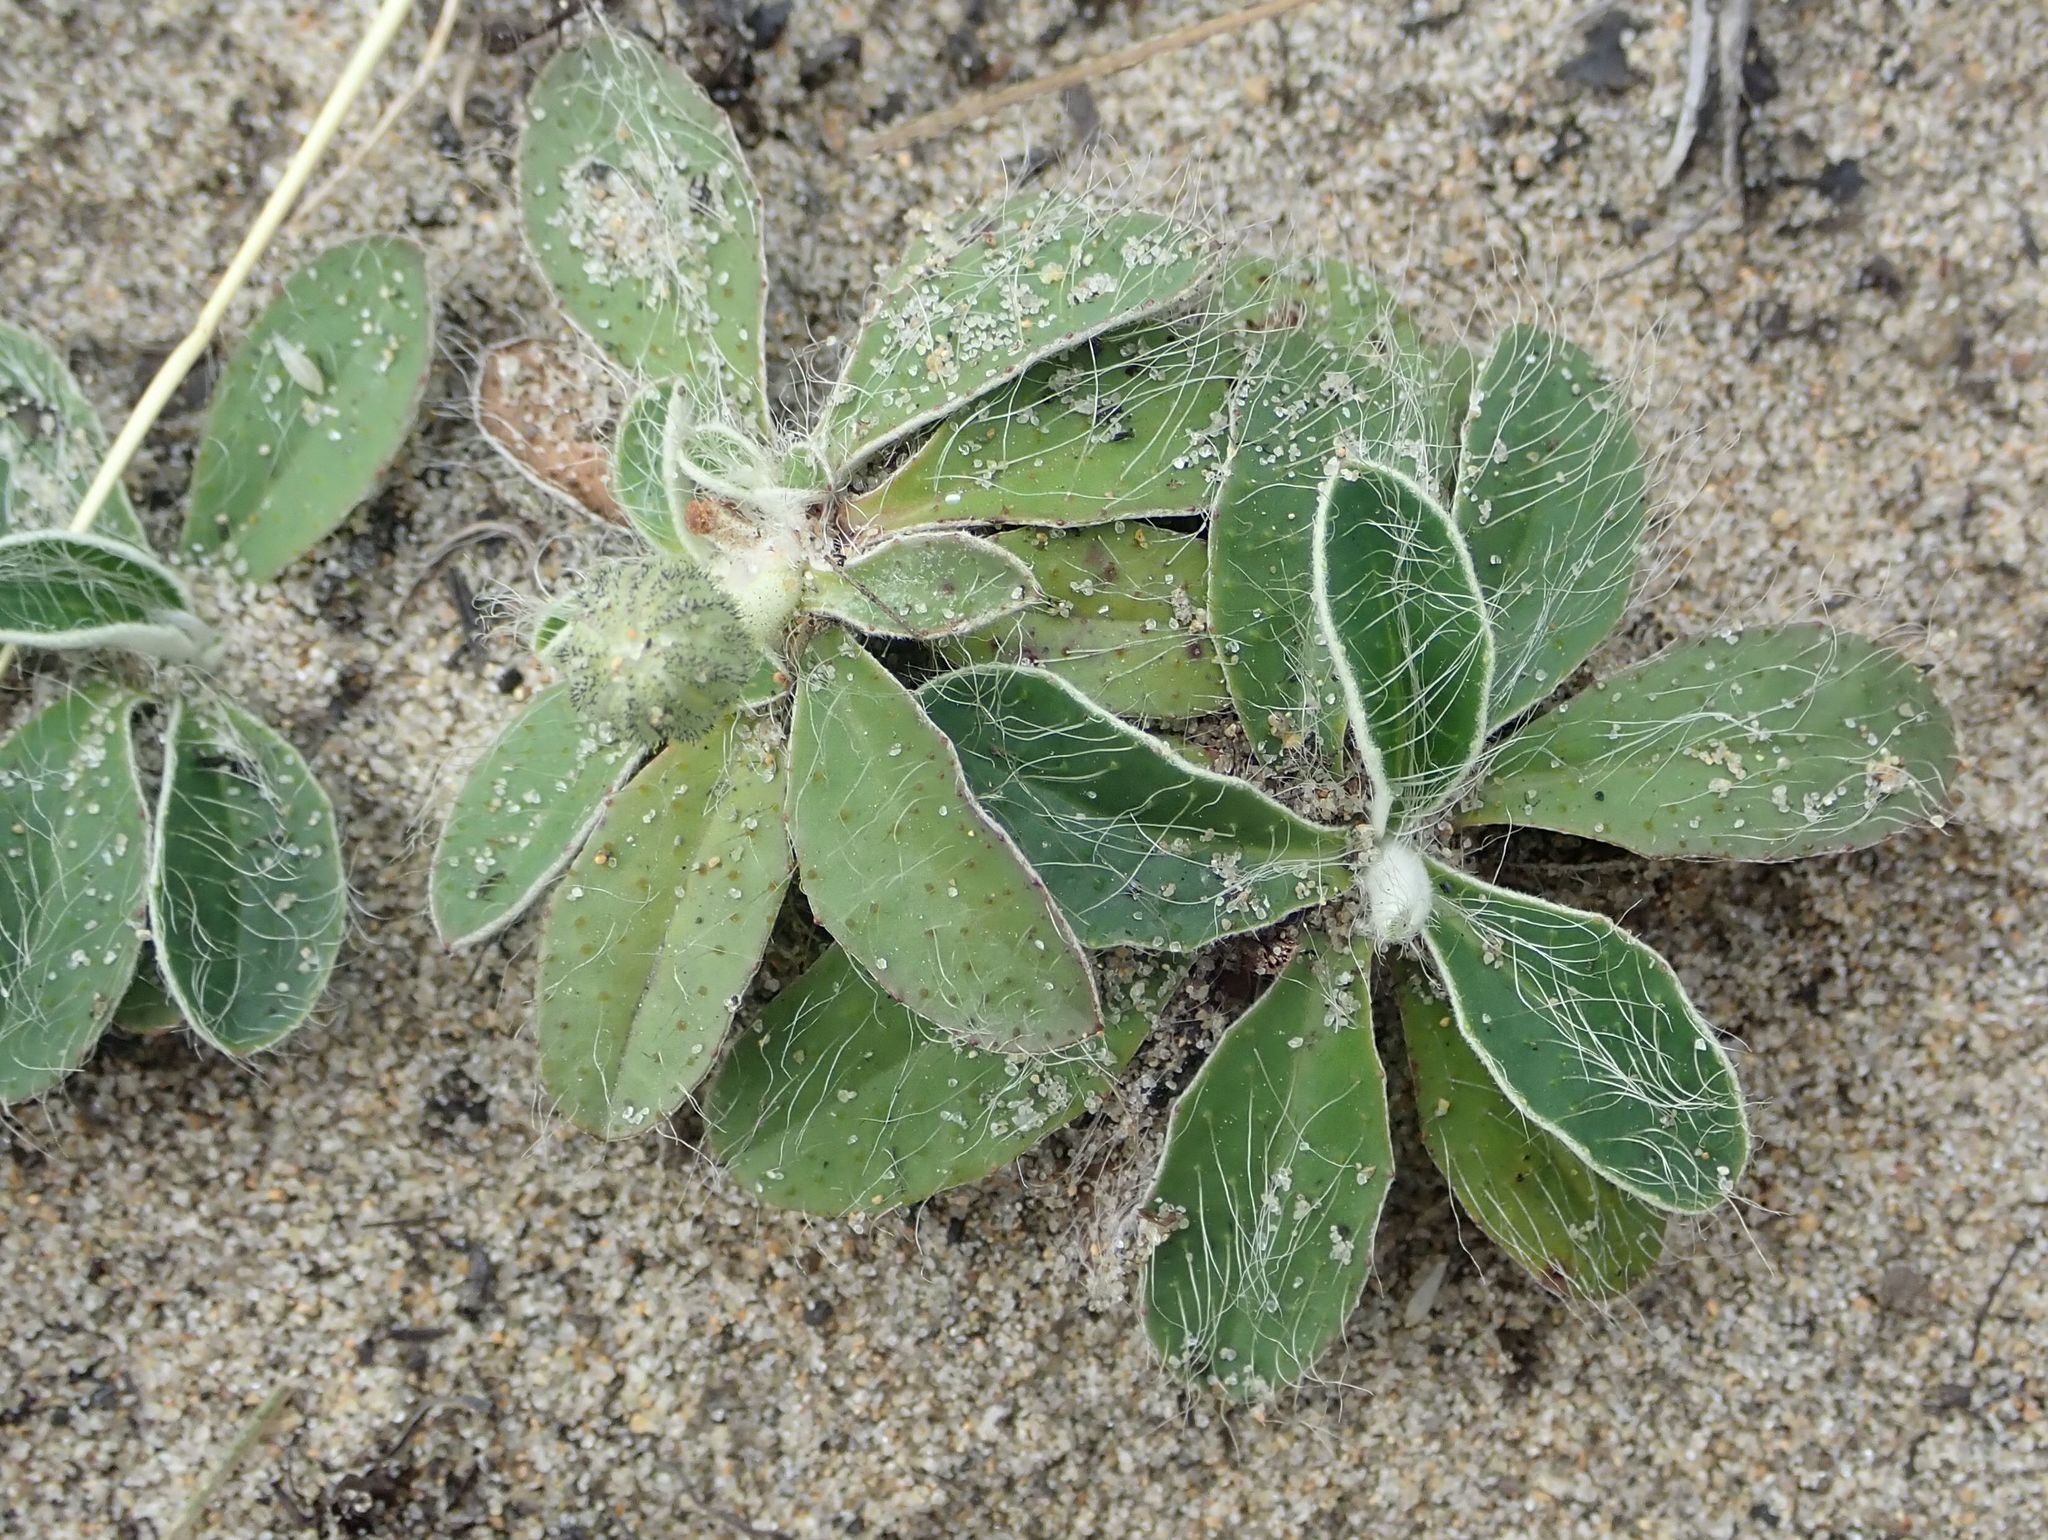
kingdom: Plantae
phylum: Tracheophyta
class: Magnoliopsida
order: Asterales
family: Asteraceae
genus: Pilosella
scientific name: Pilosella officinarum
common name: Mouse-ear hawkweed
